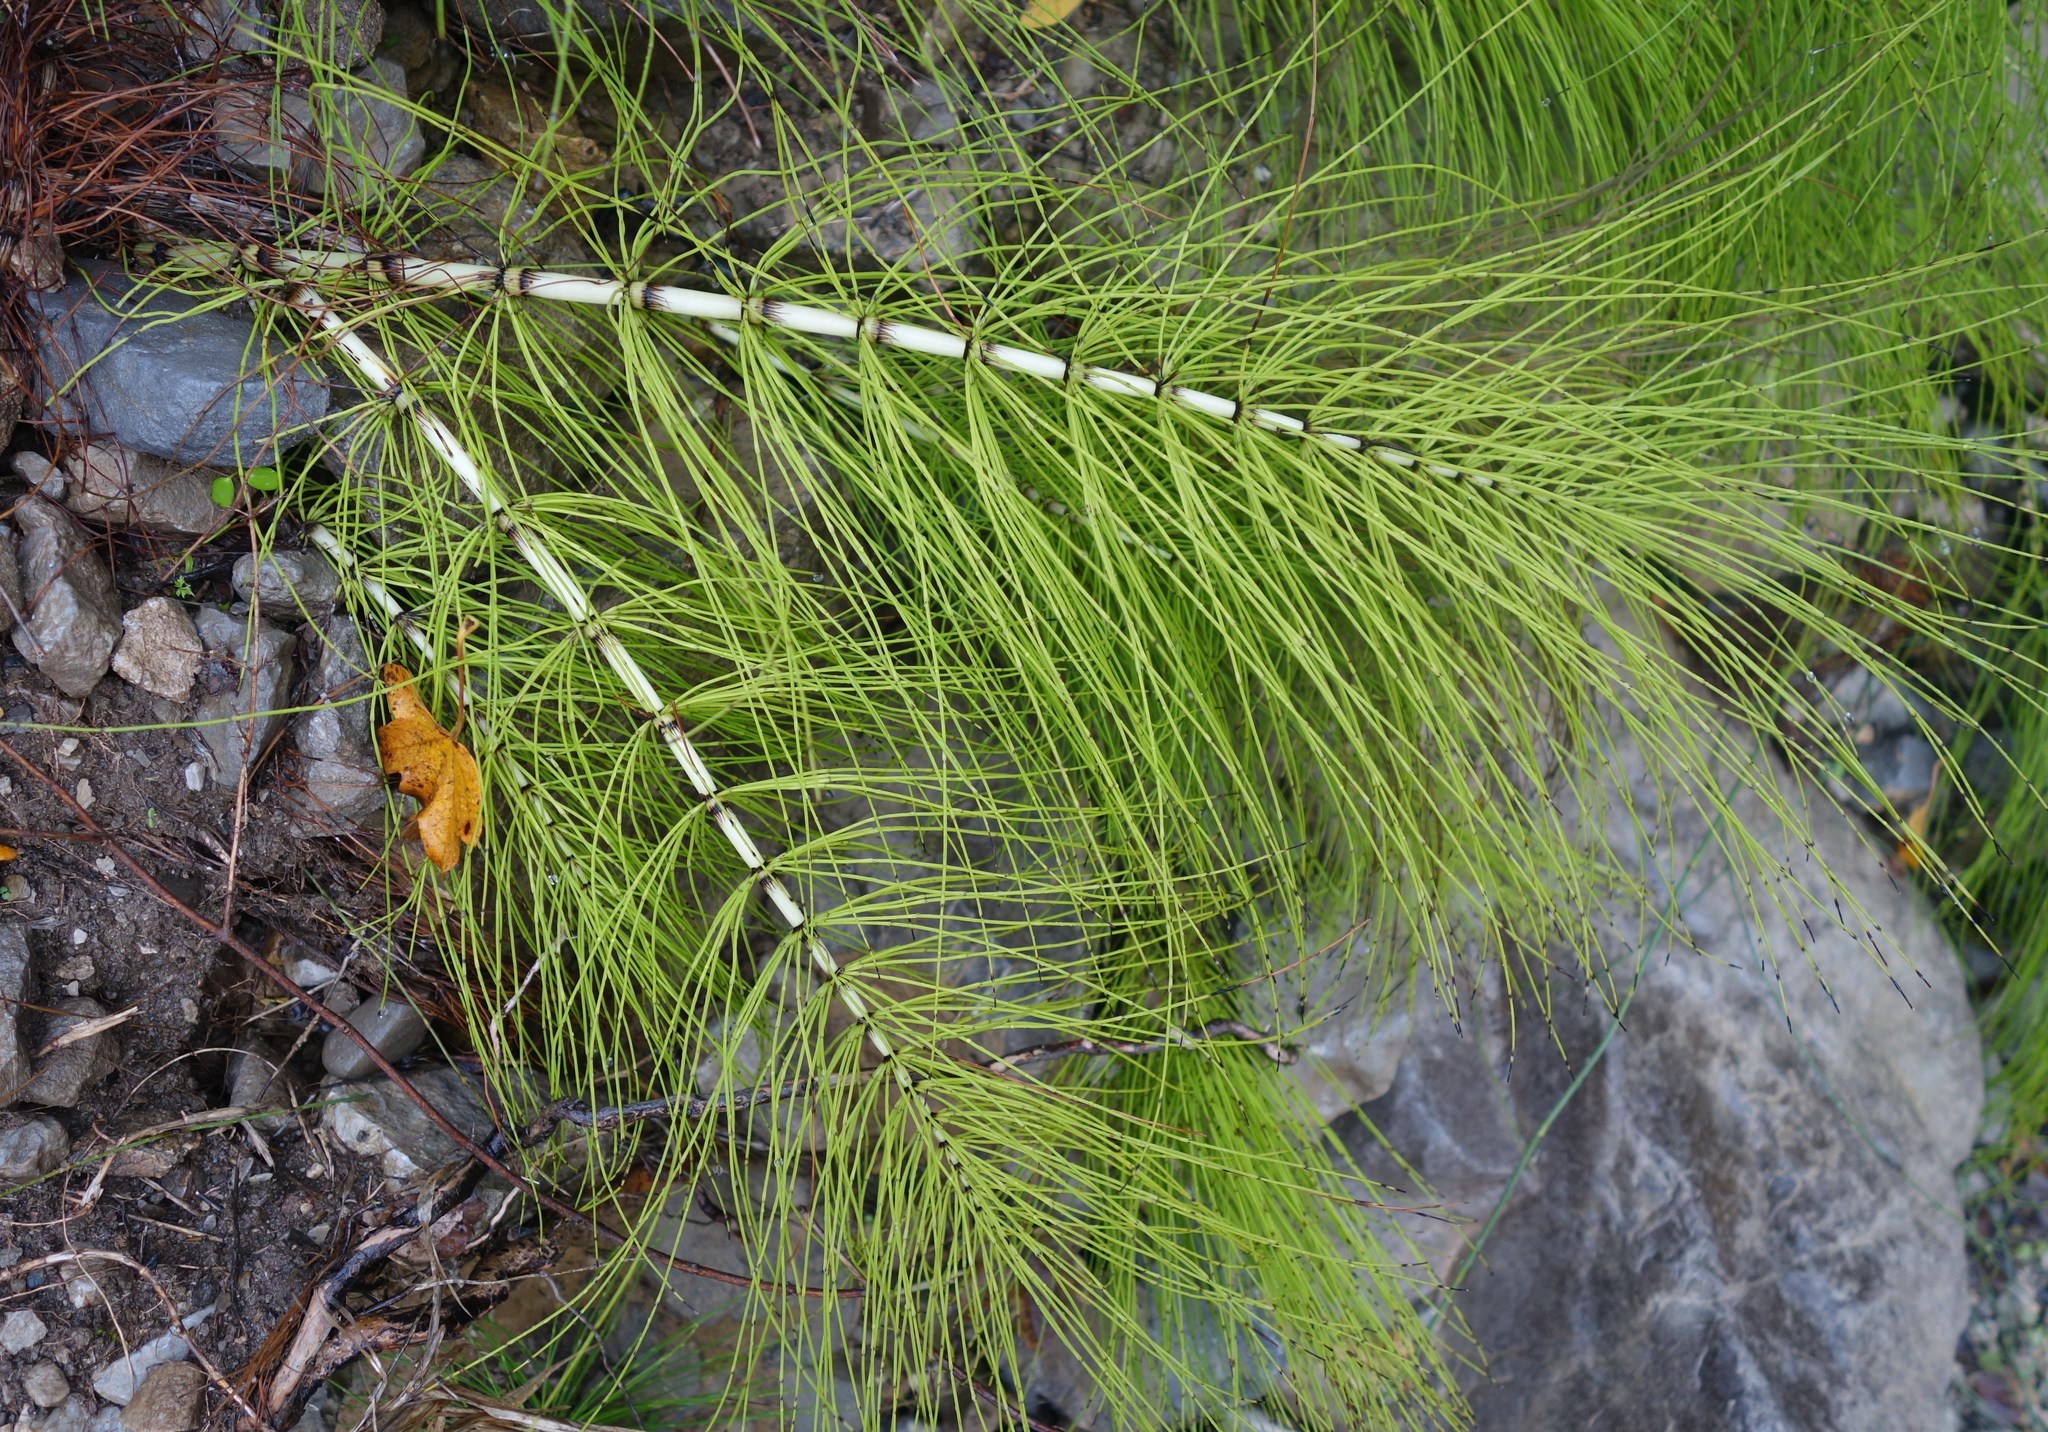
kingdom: Plantae
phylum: Tracheophyta
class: Polypodiopsida
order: Equisetales
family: Equisetaceae
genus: Equisetum
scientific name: Equisetum telmateia
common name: Great horsetail
